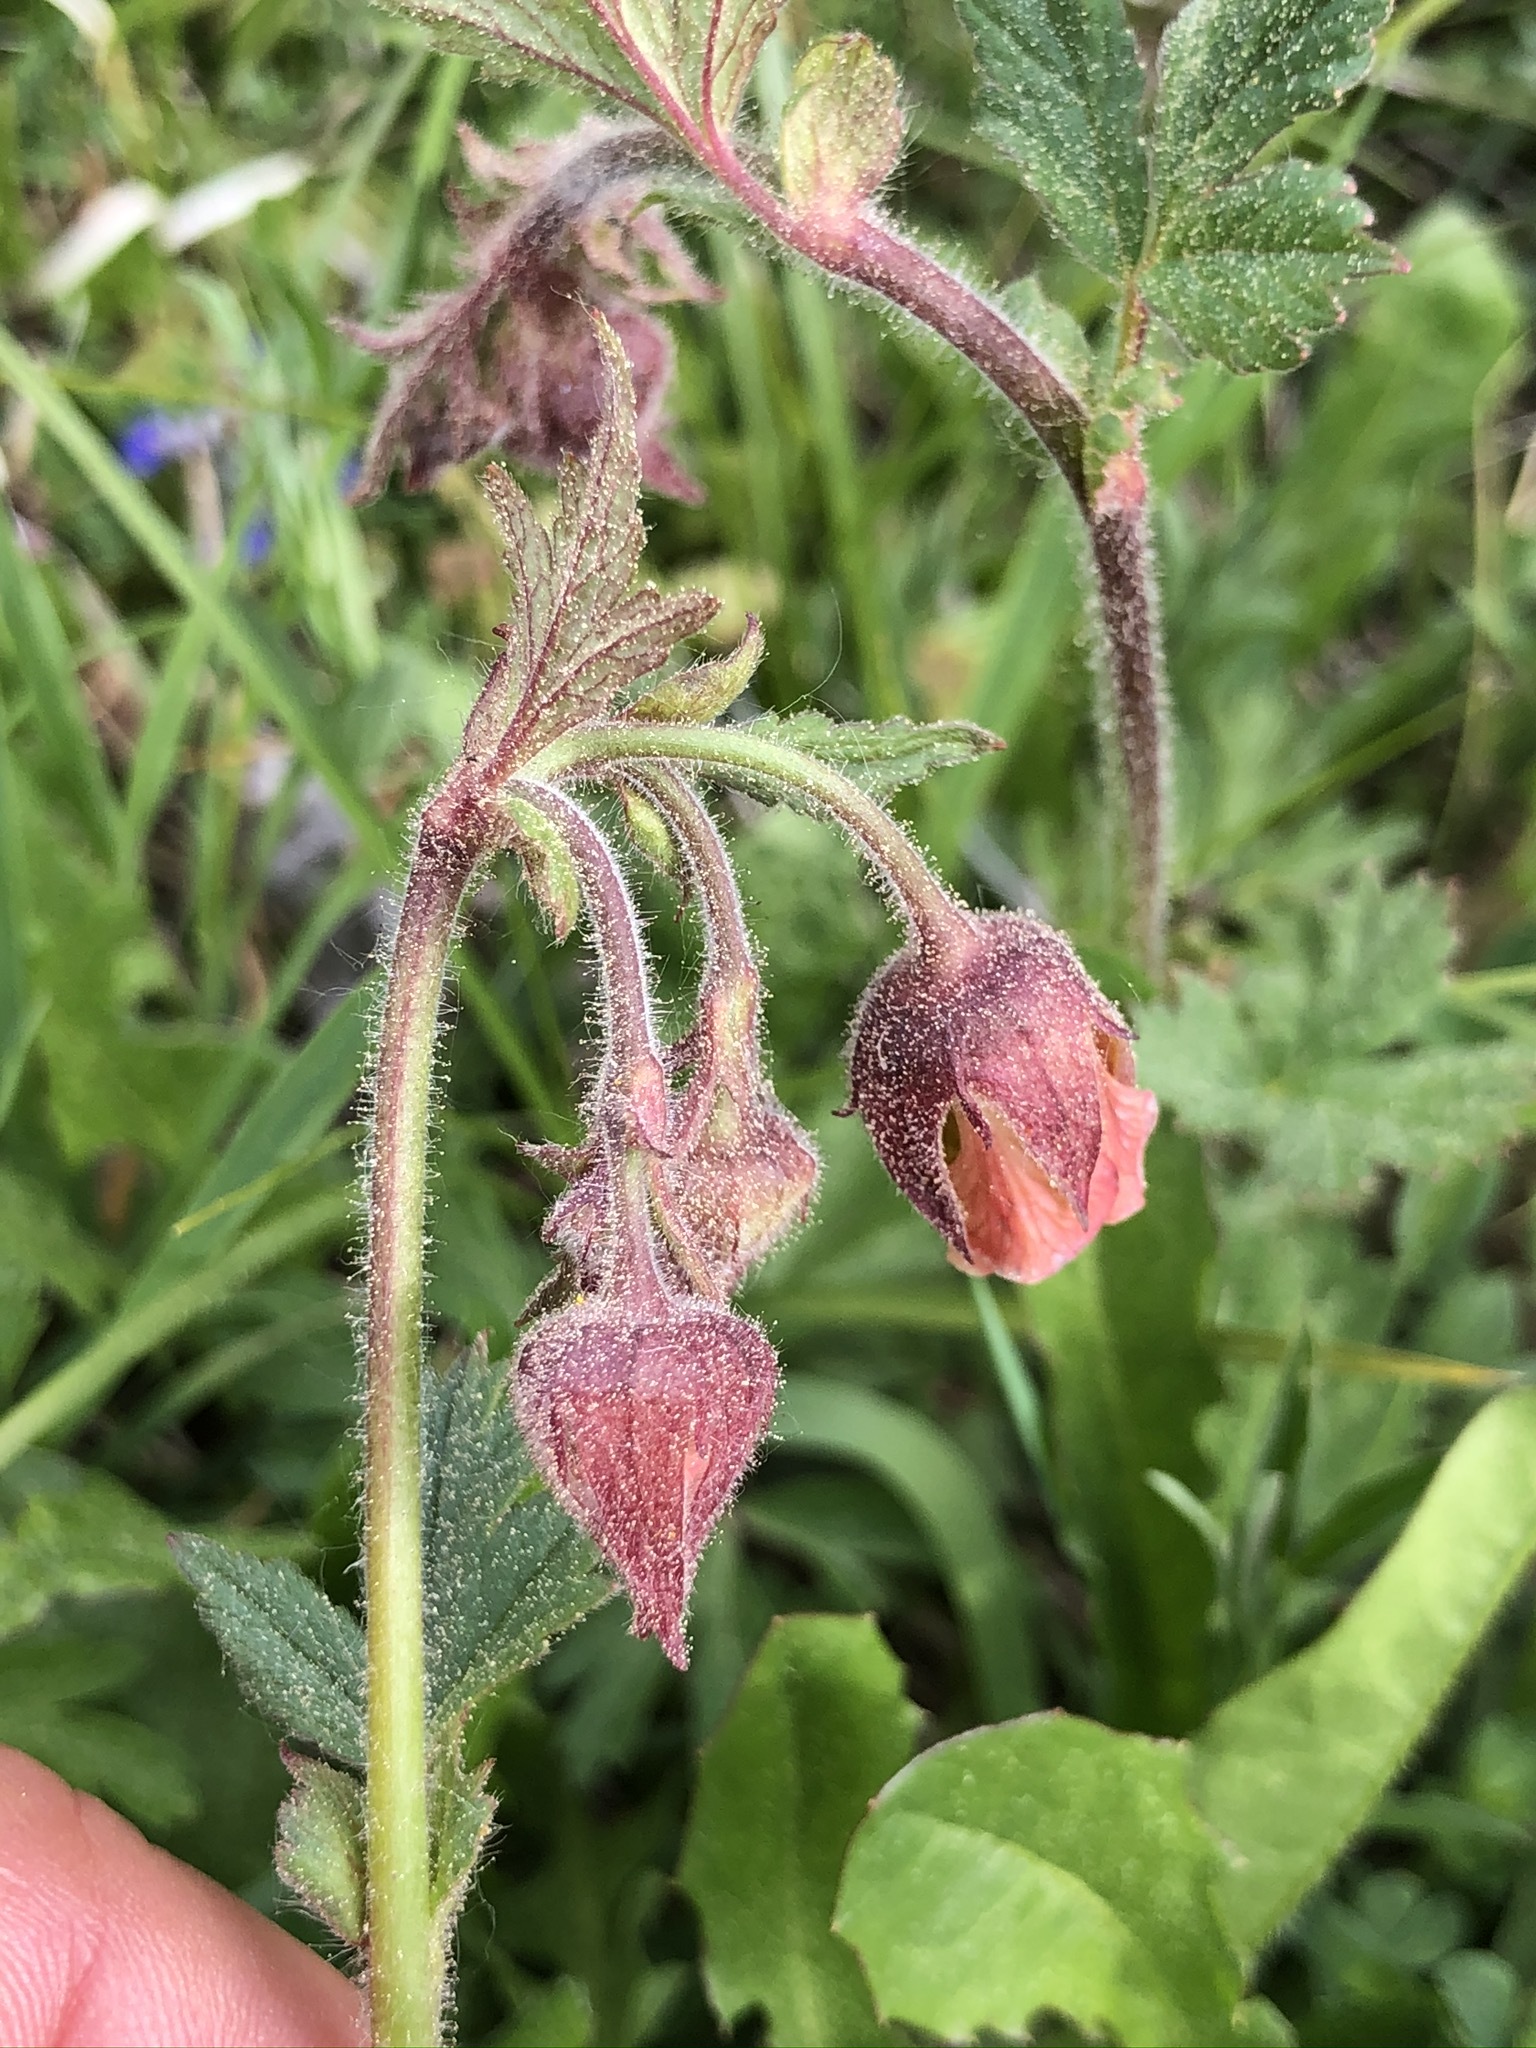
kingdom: Plantae
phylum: Tracheophyta
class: Magnoliopsida
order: Rosales
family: Rosaceae
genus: Geum
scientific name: Geum rivale
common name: Water avens
